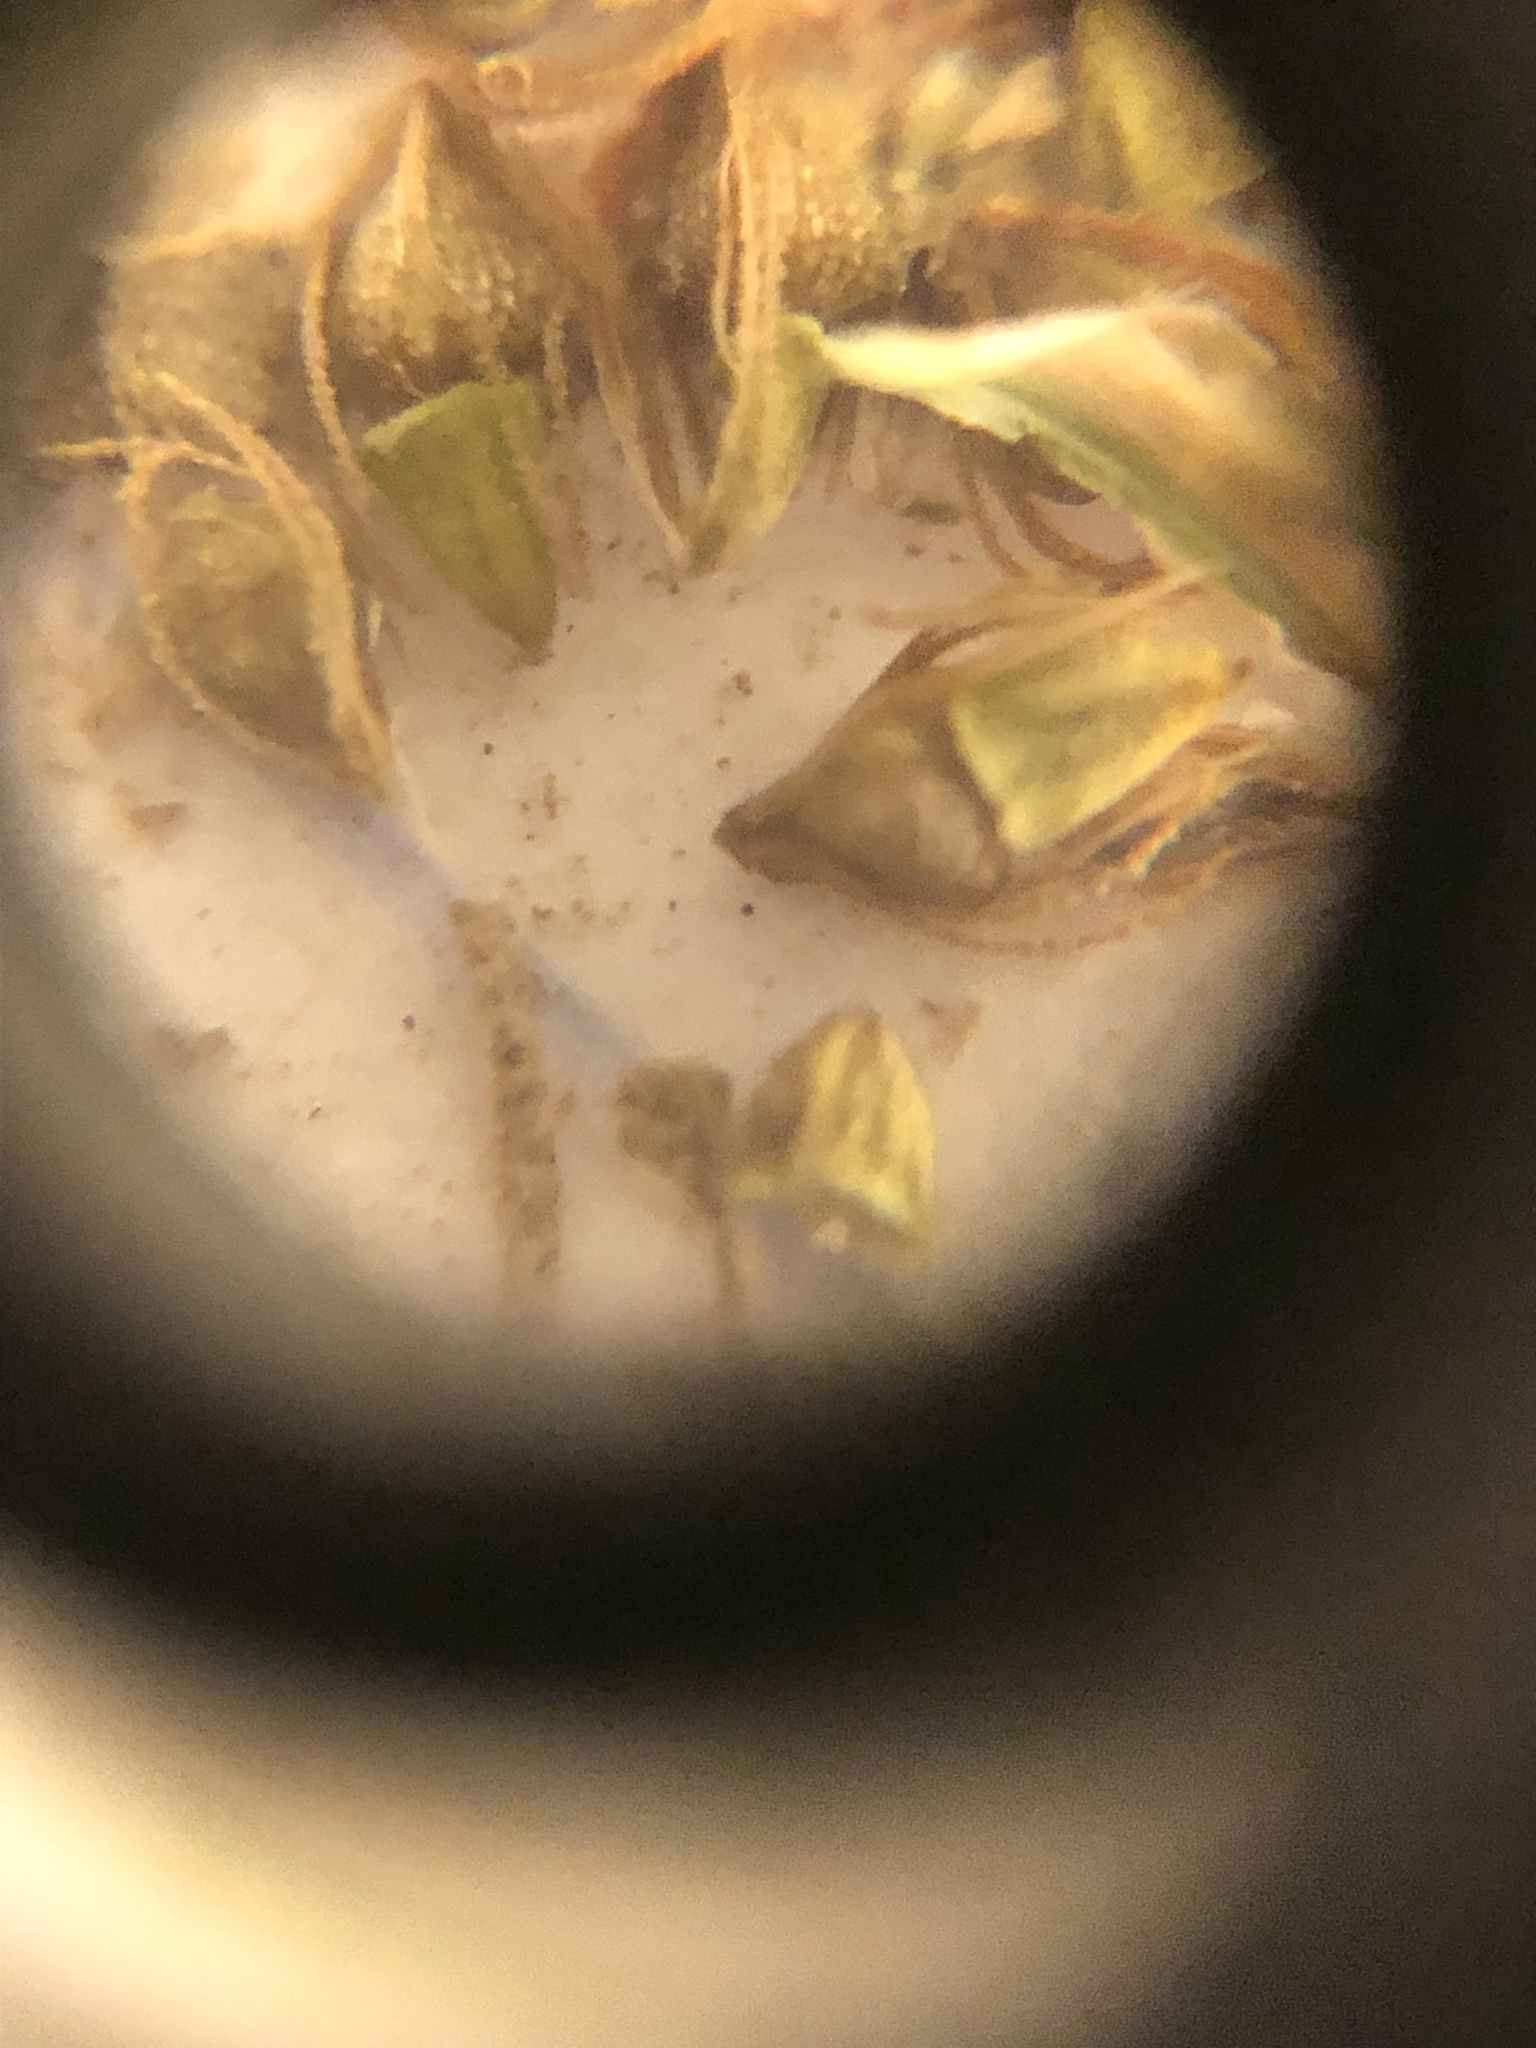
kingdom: Plantae
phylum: Tracheophyta
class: Liliopsida
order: Poales
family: Cyperaceae
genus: Eleocharis
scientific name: Eleocharis tuberculosa
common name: Cone-cup spikerush
